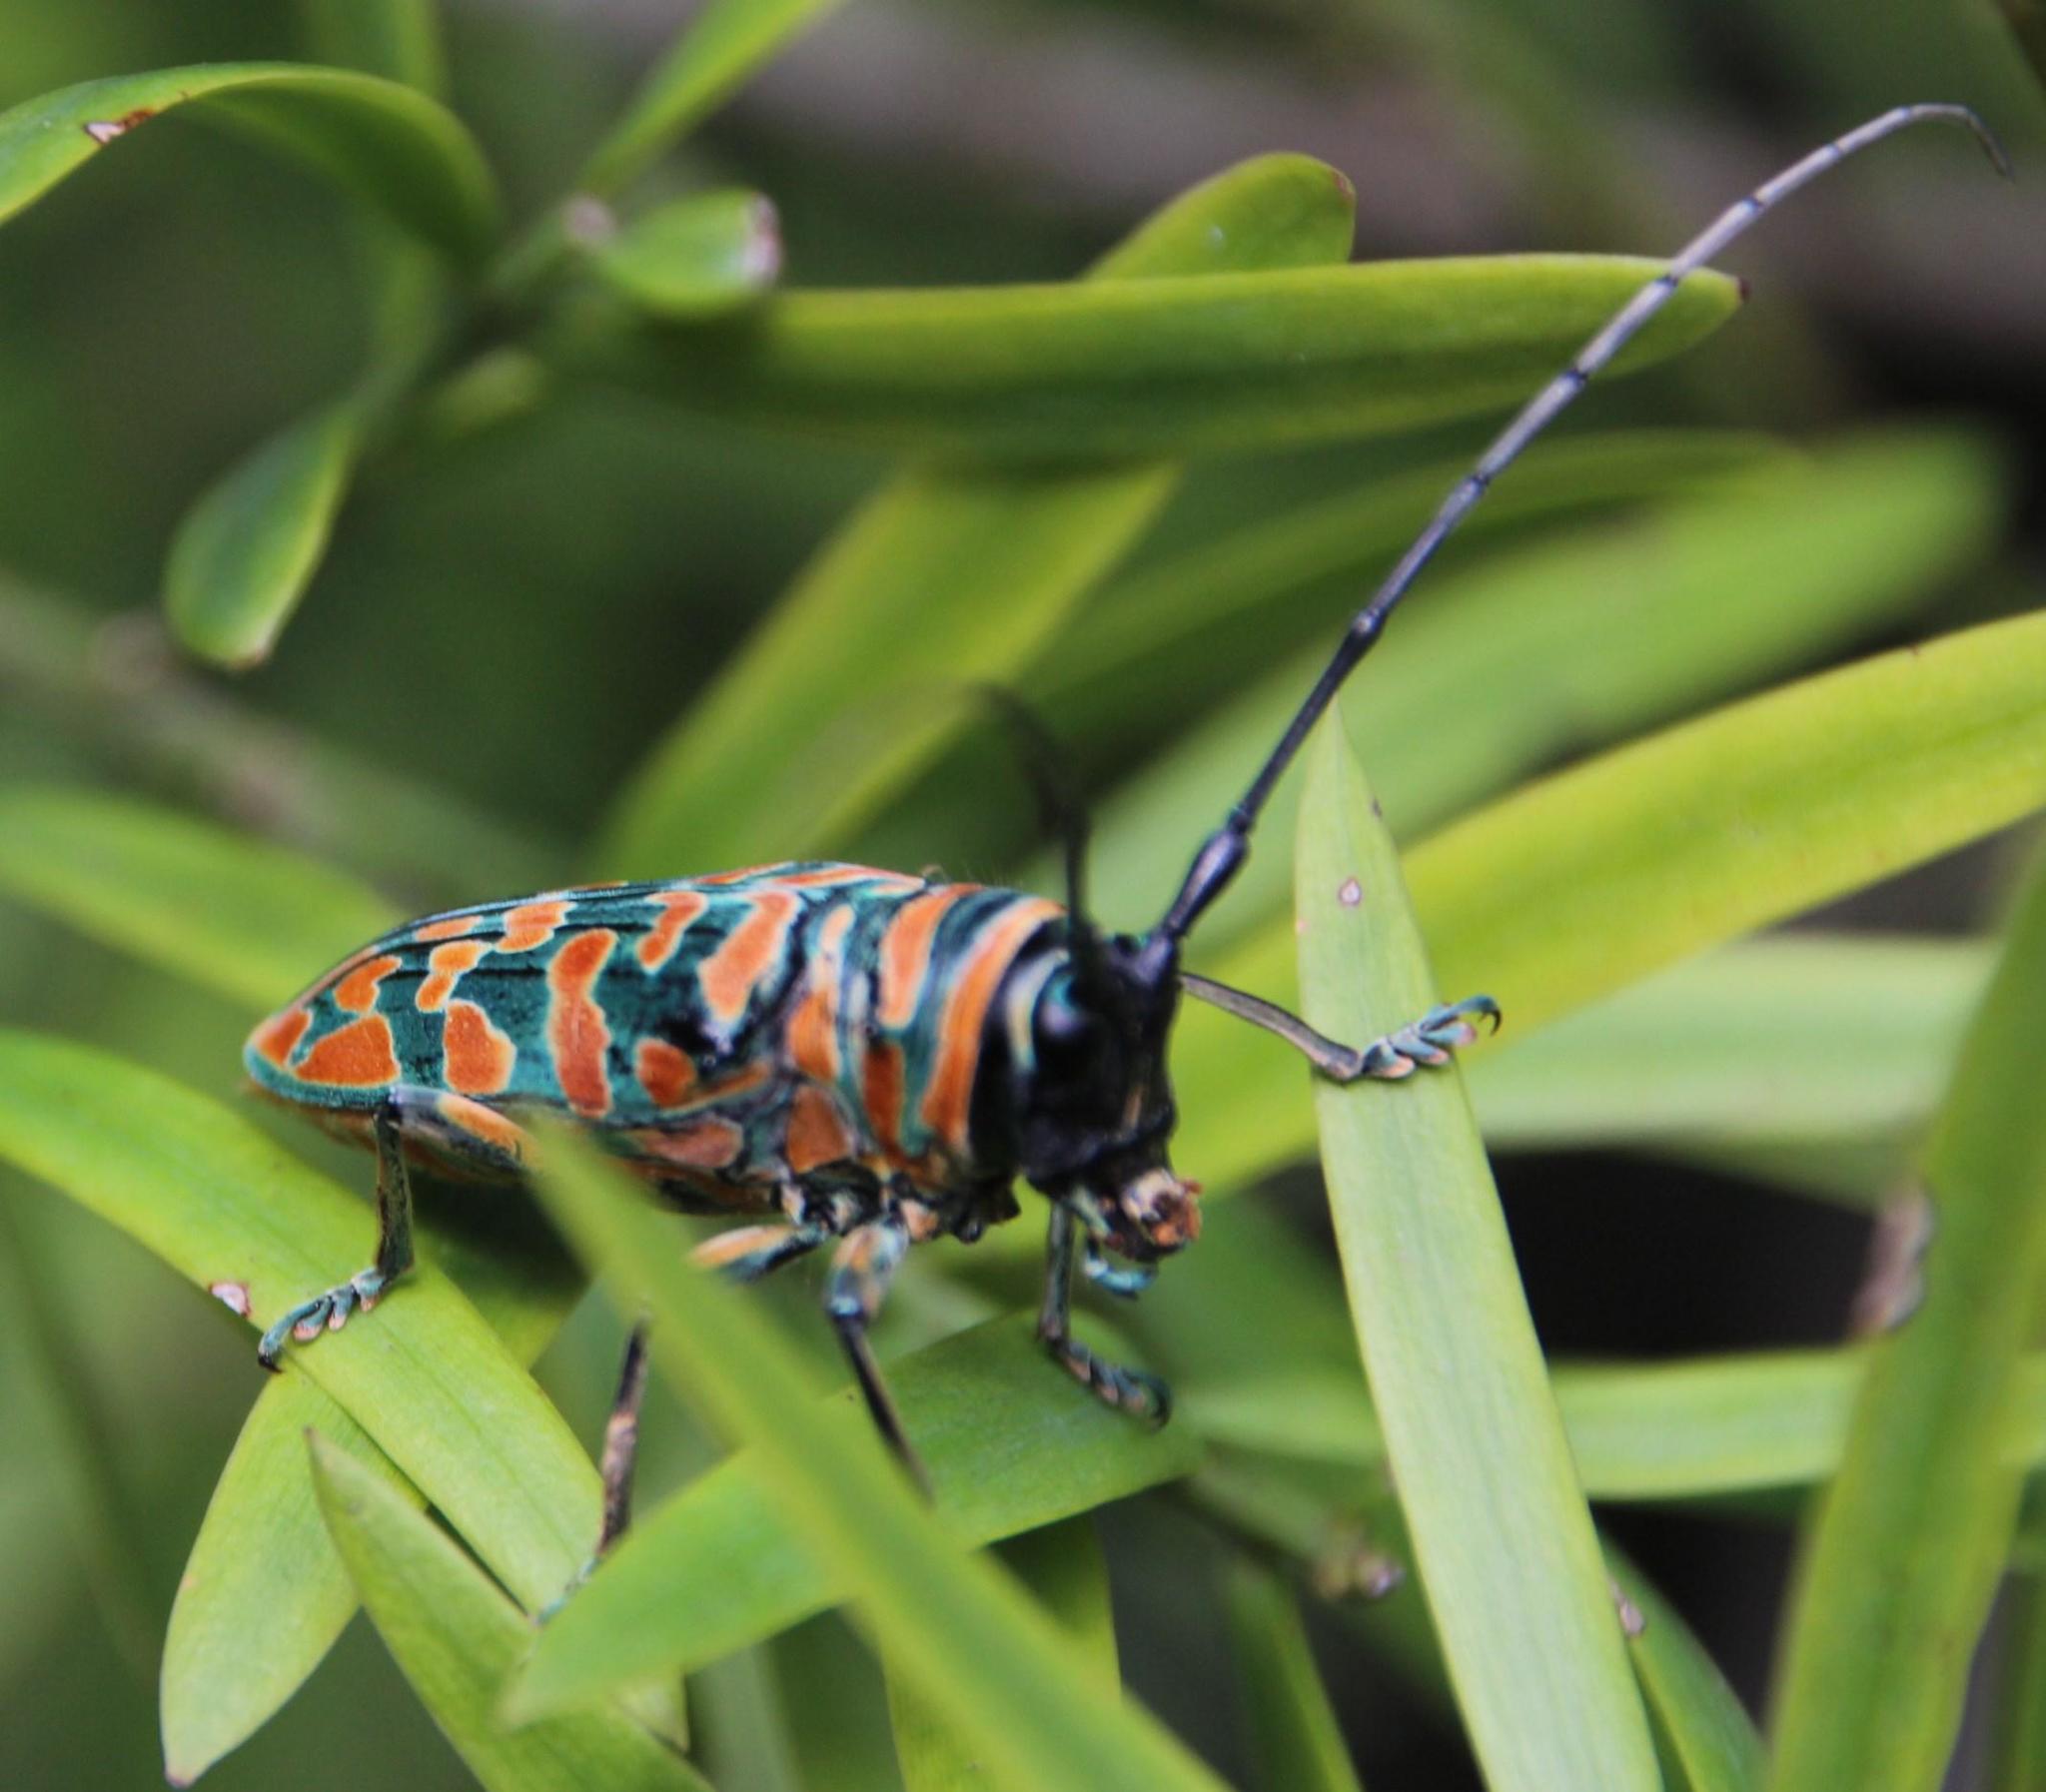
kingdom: Animalia
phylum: Arthropoda
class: Insecta
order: Coleoptera
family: Cerambycidae
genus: Sternotomis
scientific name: Sternotomis bohemani
